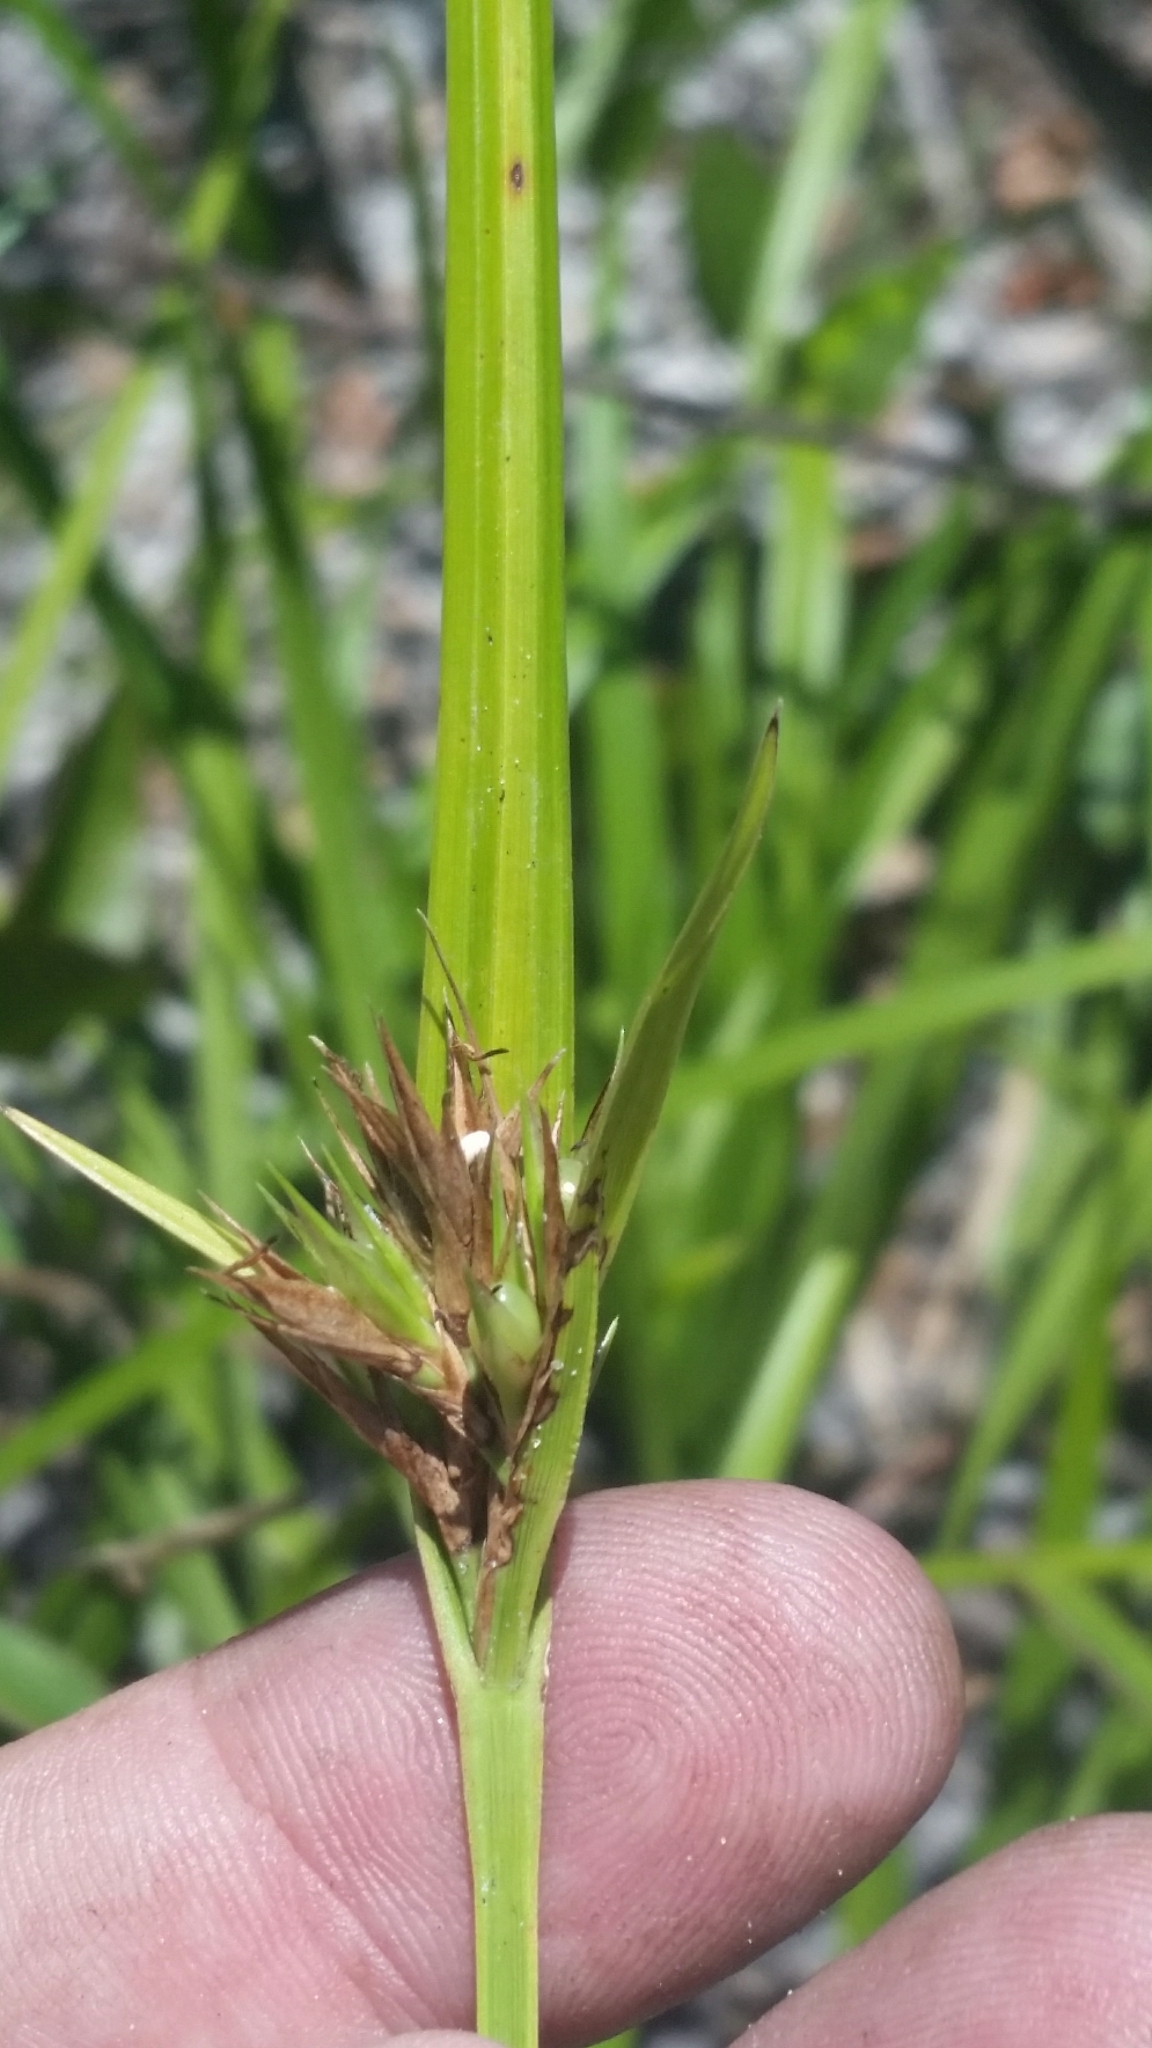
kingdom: Plantae
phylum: Tracheophyta
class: Liliopsida
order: Poales
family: Cyperaceae
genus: Scleria
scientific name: Scleria triglomerata
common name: Whip nutrush
